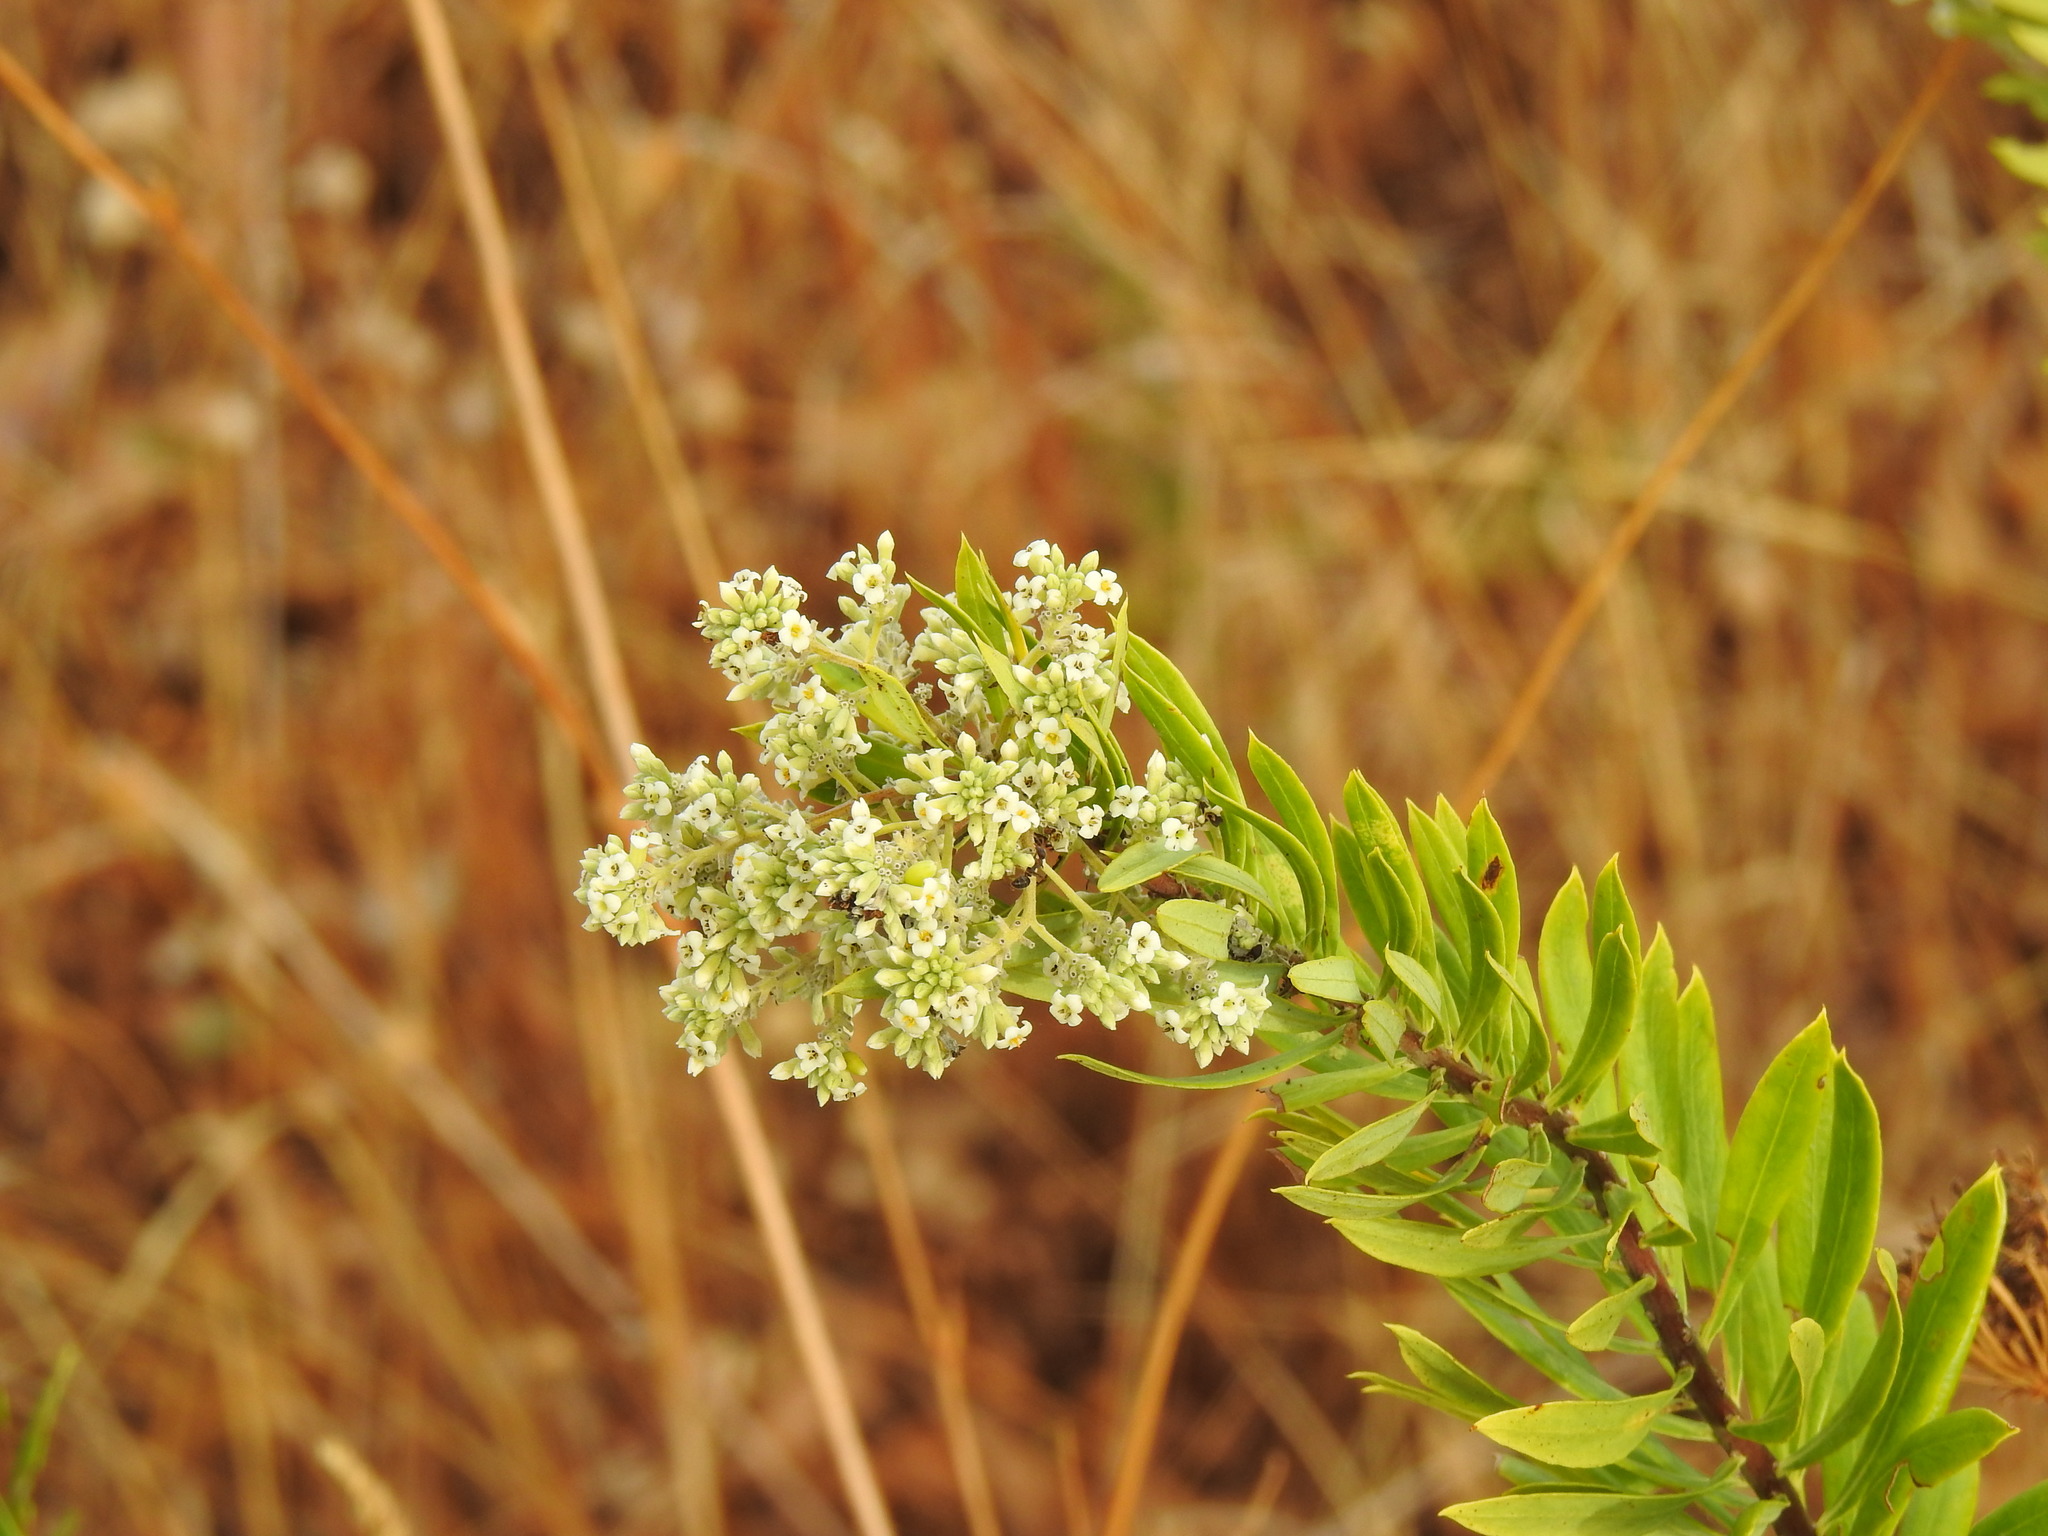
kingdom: Plantae
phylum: Tracheophyta
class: Magnoliopsida
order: Malvales
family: Thymelaeaceae
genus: Daphne
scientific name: Daphne gnidium
